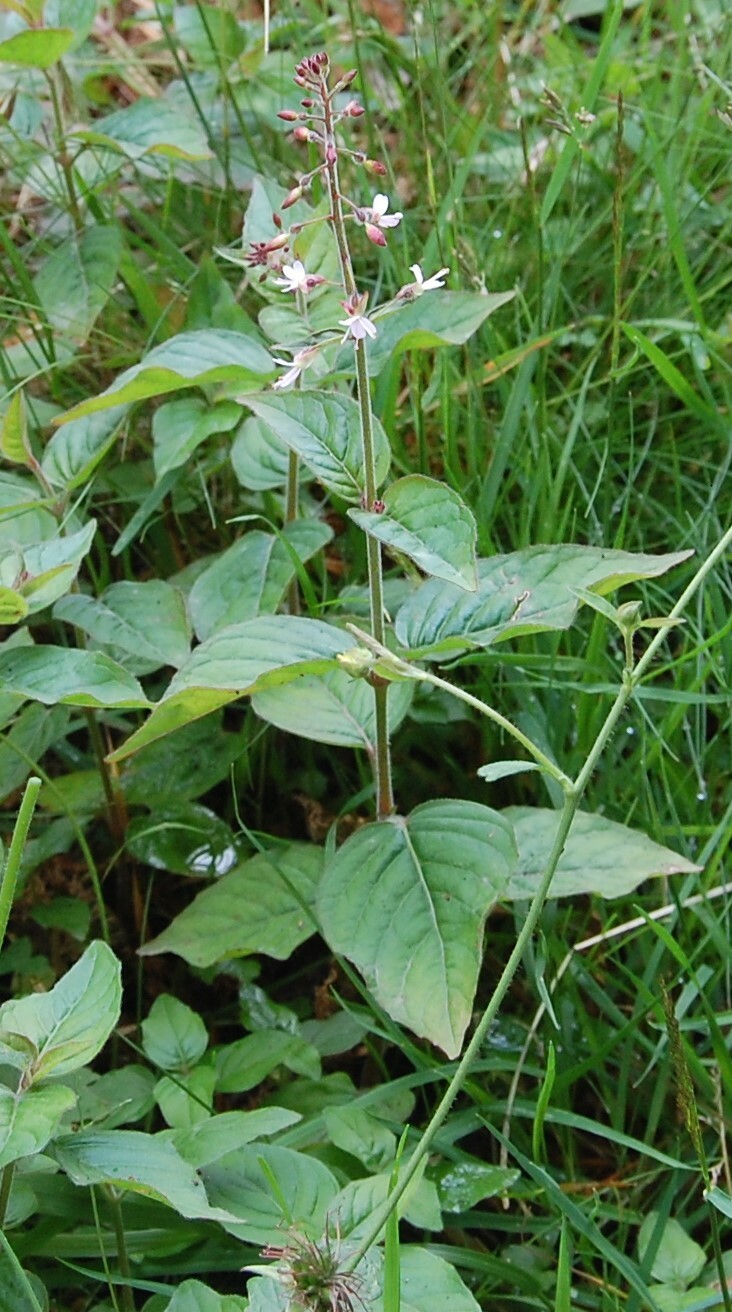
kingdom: Plantae
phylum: Tracheophyta
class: Magnoliopsida
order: Myrtales
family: Onagraceae
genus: Circaea
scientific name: Circaea lutetiana
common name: Enchanter's-nightshade
